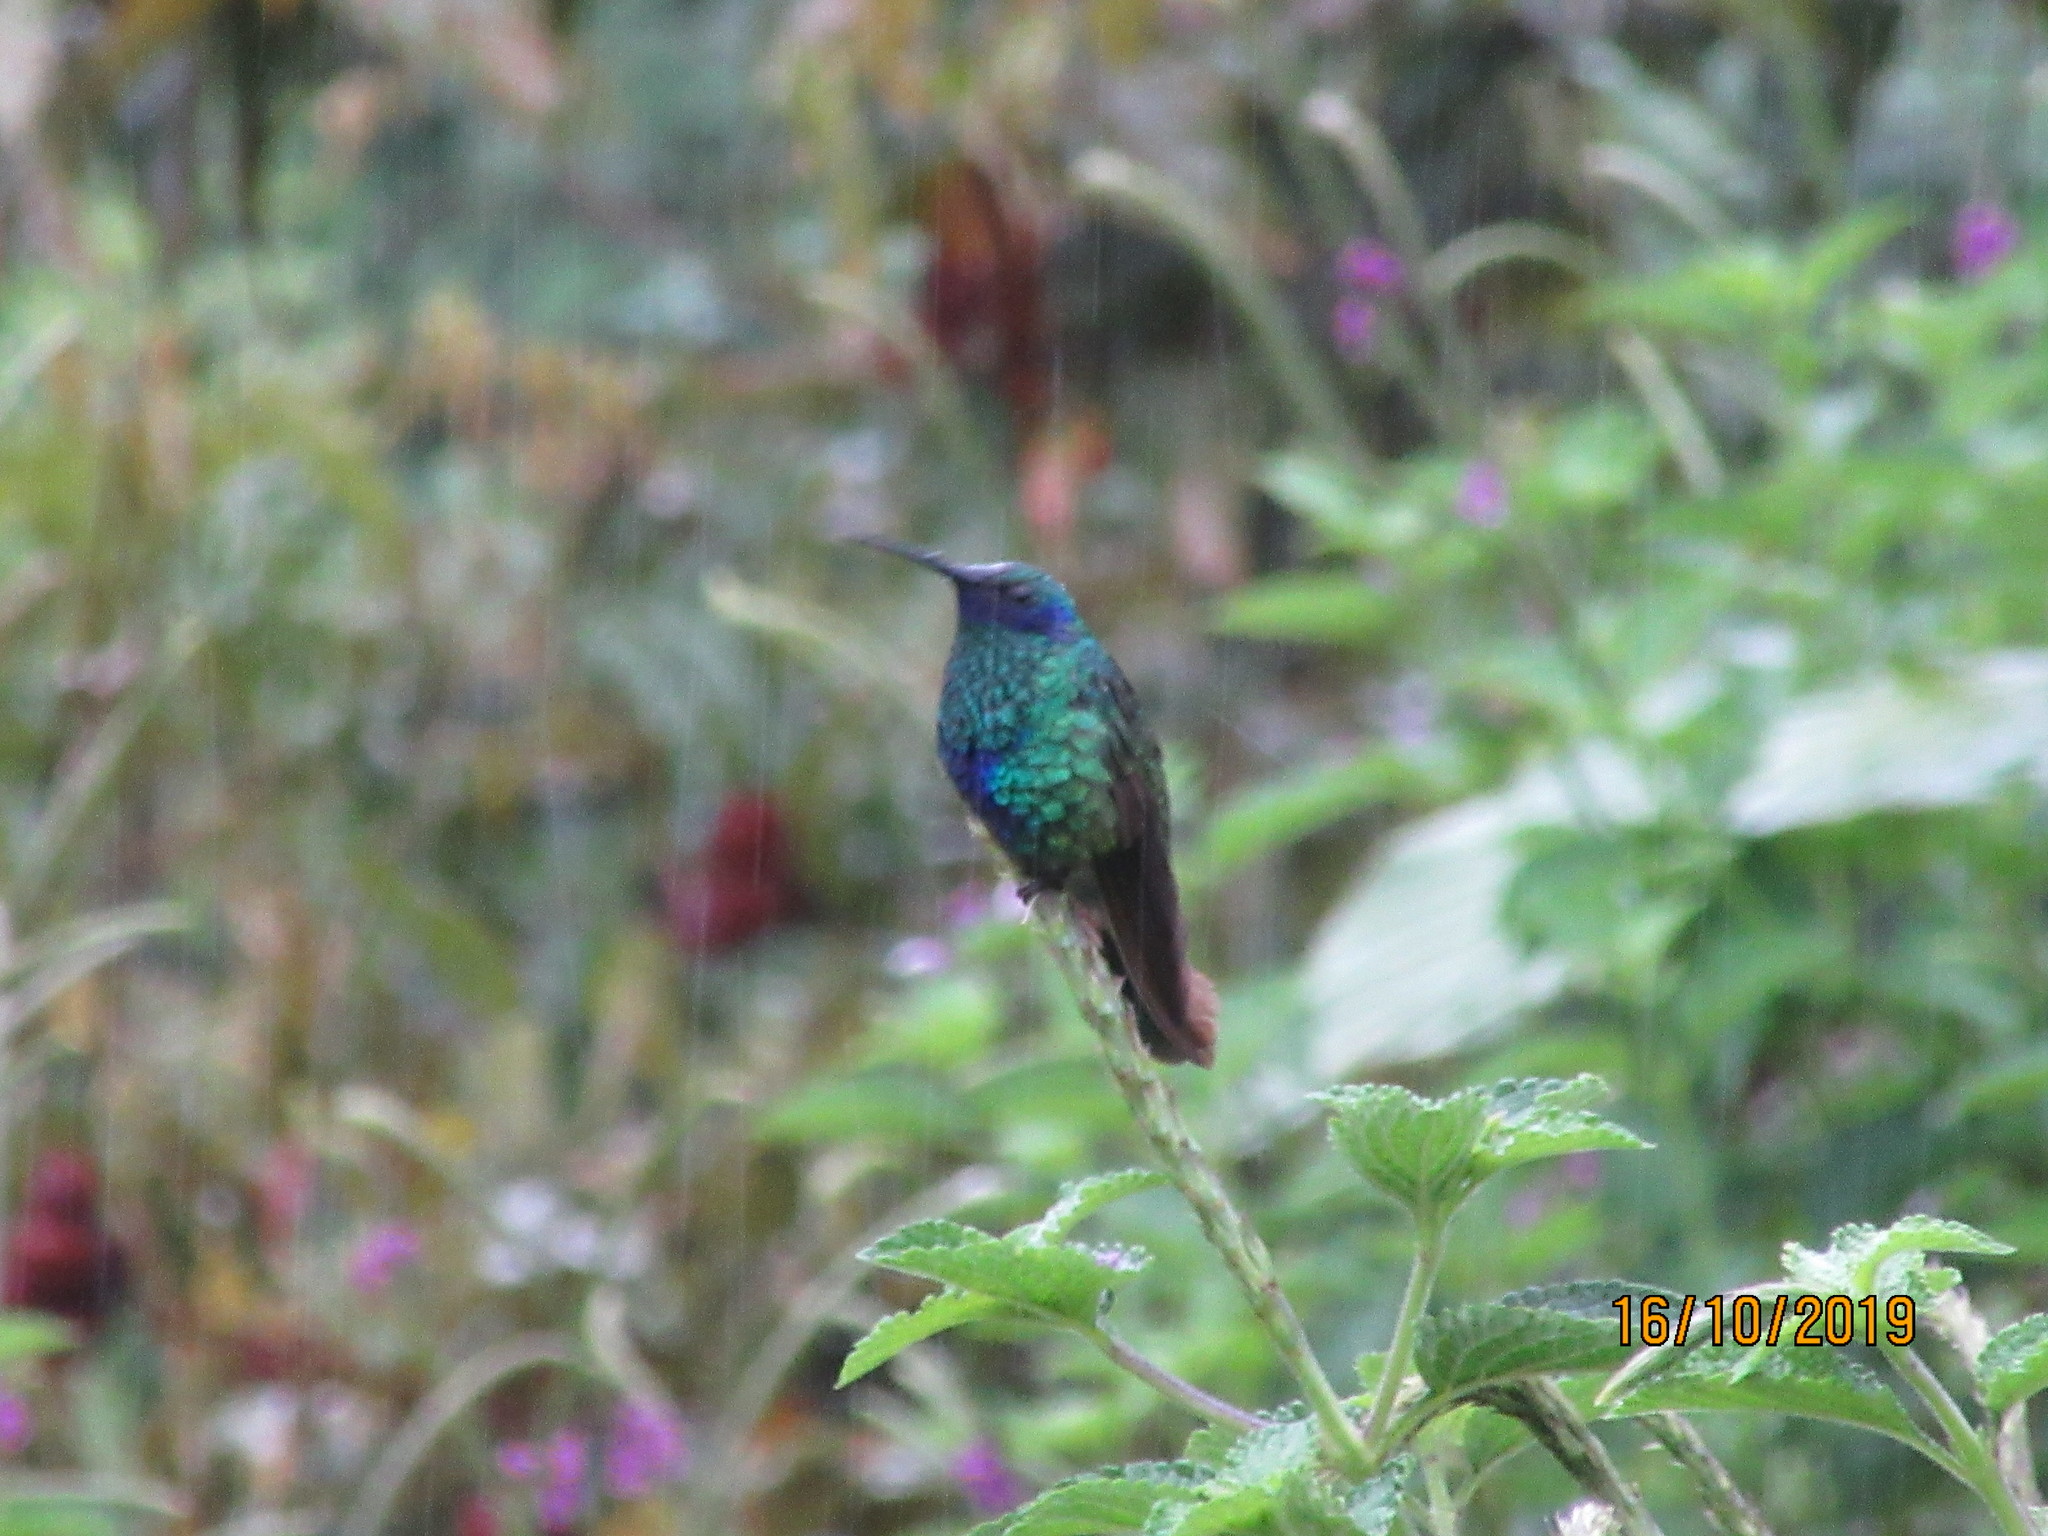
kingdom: Animalia
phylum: Chordata
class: Aves
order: Apodiformes
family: Trochilidae
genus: Colibri
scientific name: Colibri coruscans
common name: Sparkling violetear
